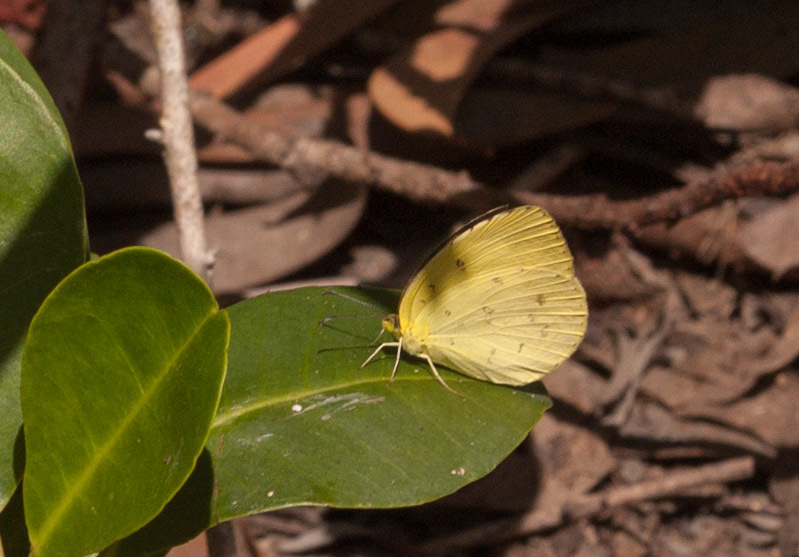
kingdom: Animalia
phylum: Arthropoda
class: Insecta
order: Lepidoptera
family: Pieridae
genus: Eurema
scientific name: Eurema hecabe
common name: Pale grass yellow
